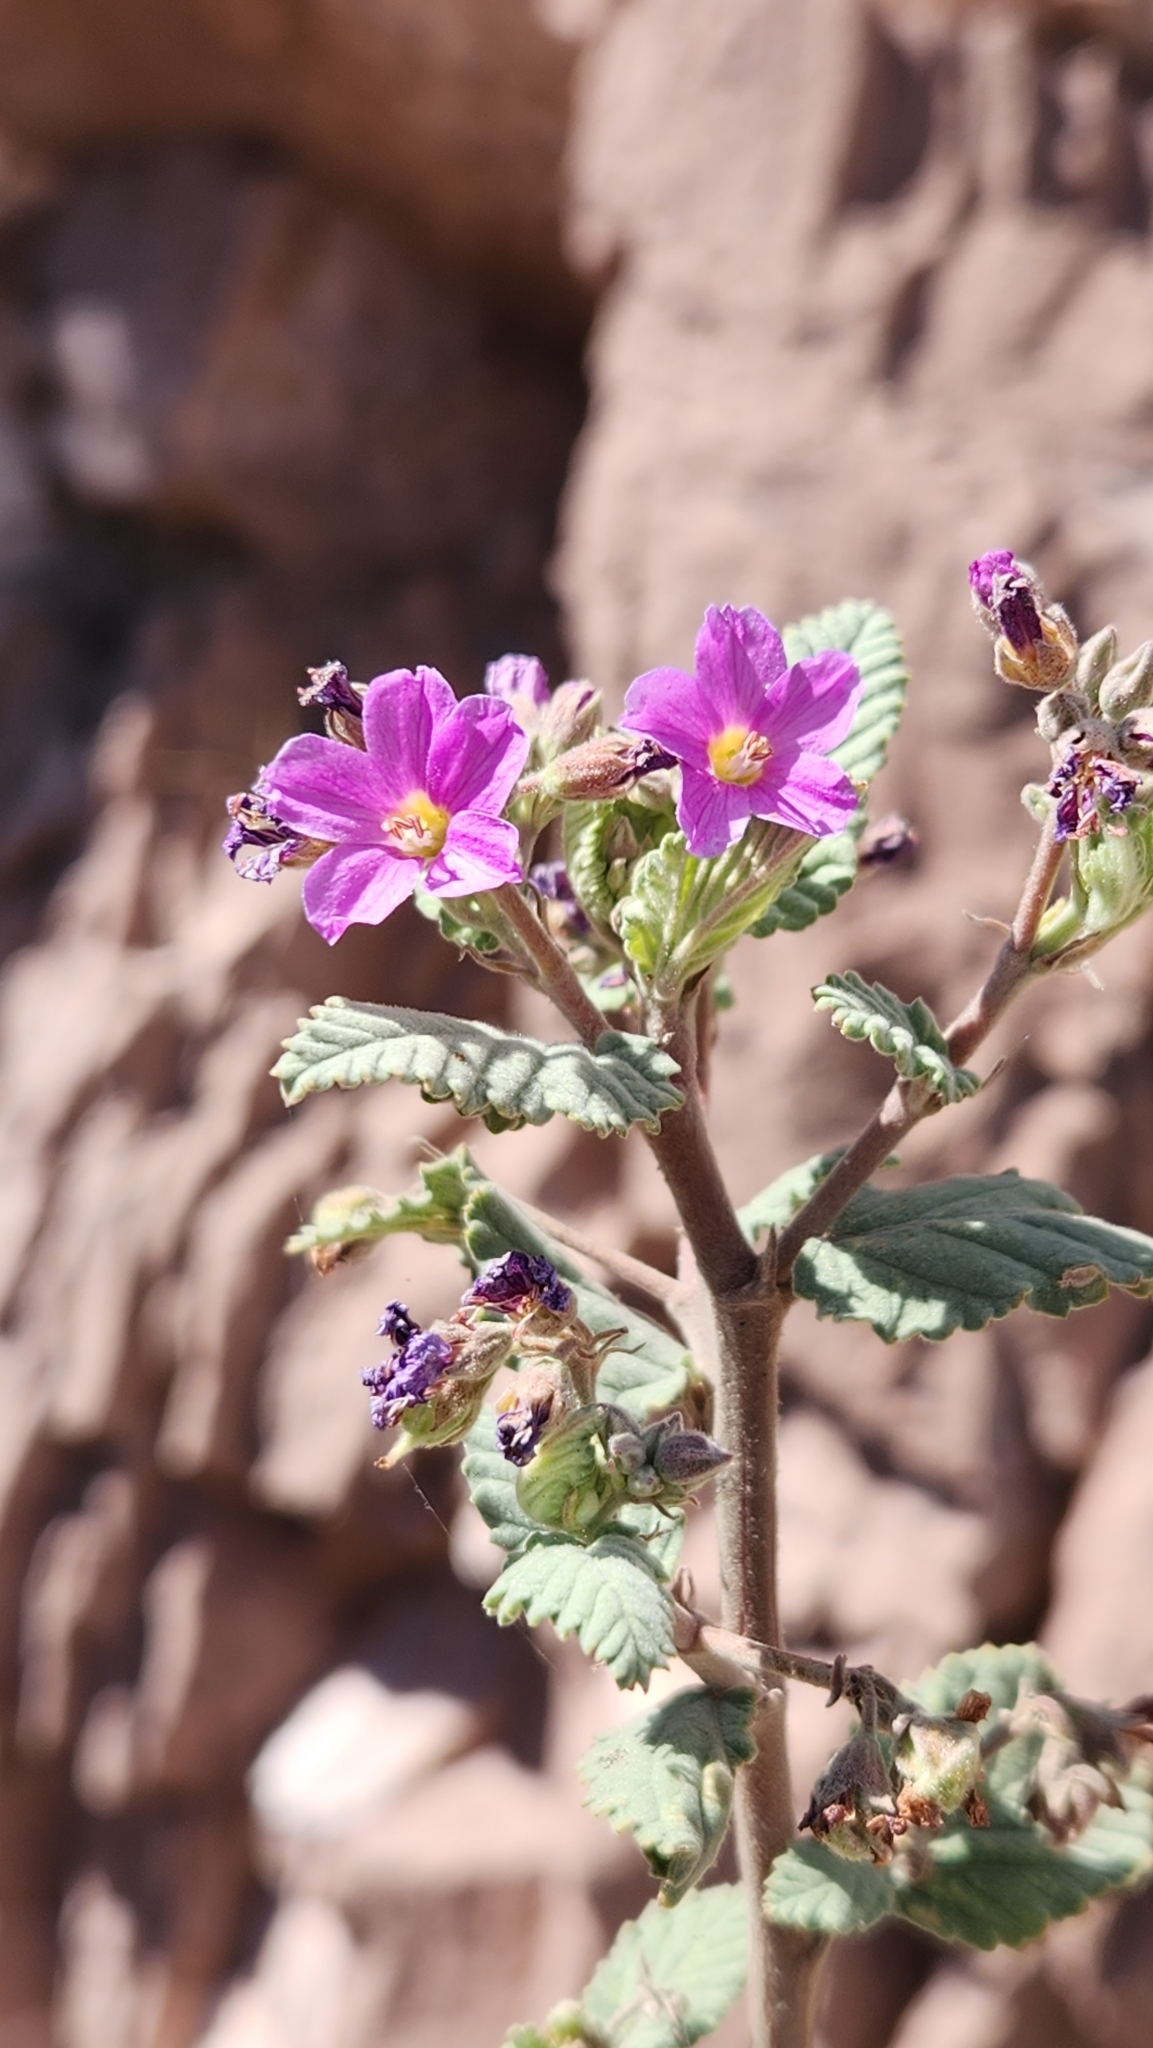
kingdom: Plantae
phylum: Tracheophyta
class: Magnoliopsida
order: Malvales
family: Malvaceae
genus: Melochia
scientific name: Melochia tomentosa
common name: Black torch
